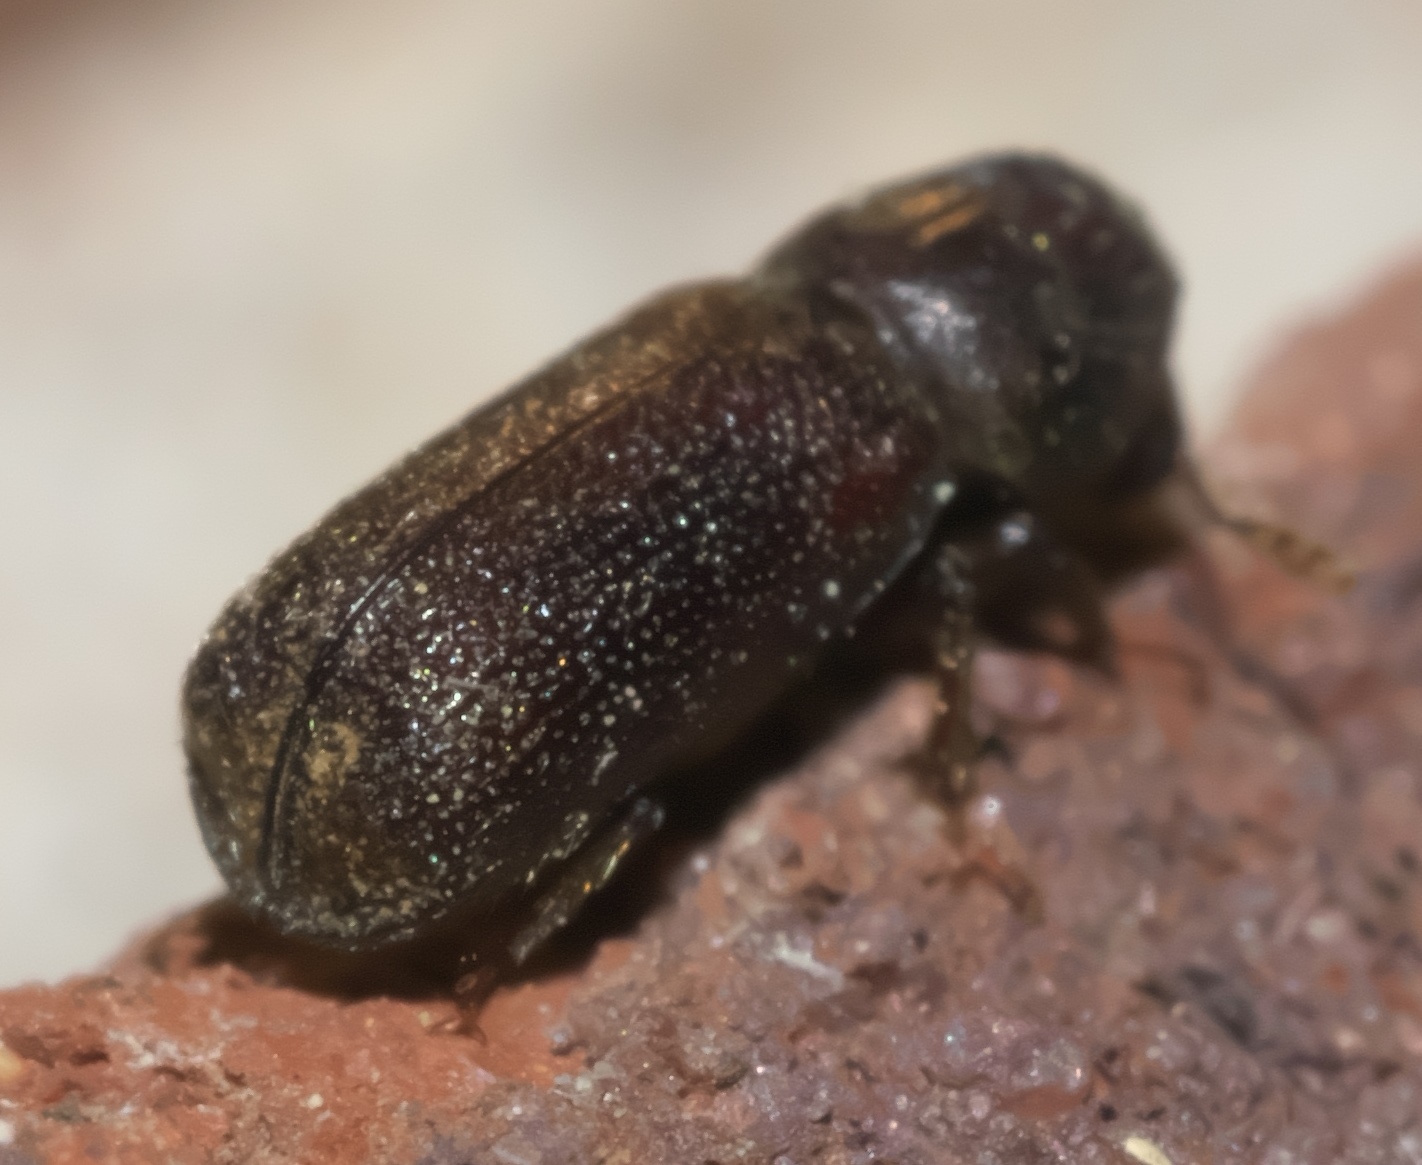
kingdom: Animalia
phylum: Arthropoda
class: Insecta
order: Coleoptera
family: Bostrichidae
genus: Prostephanus
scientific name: Prostephanus punctatus
